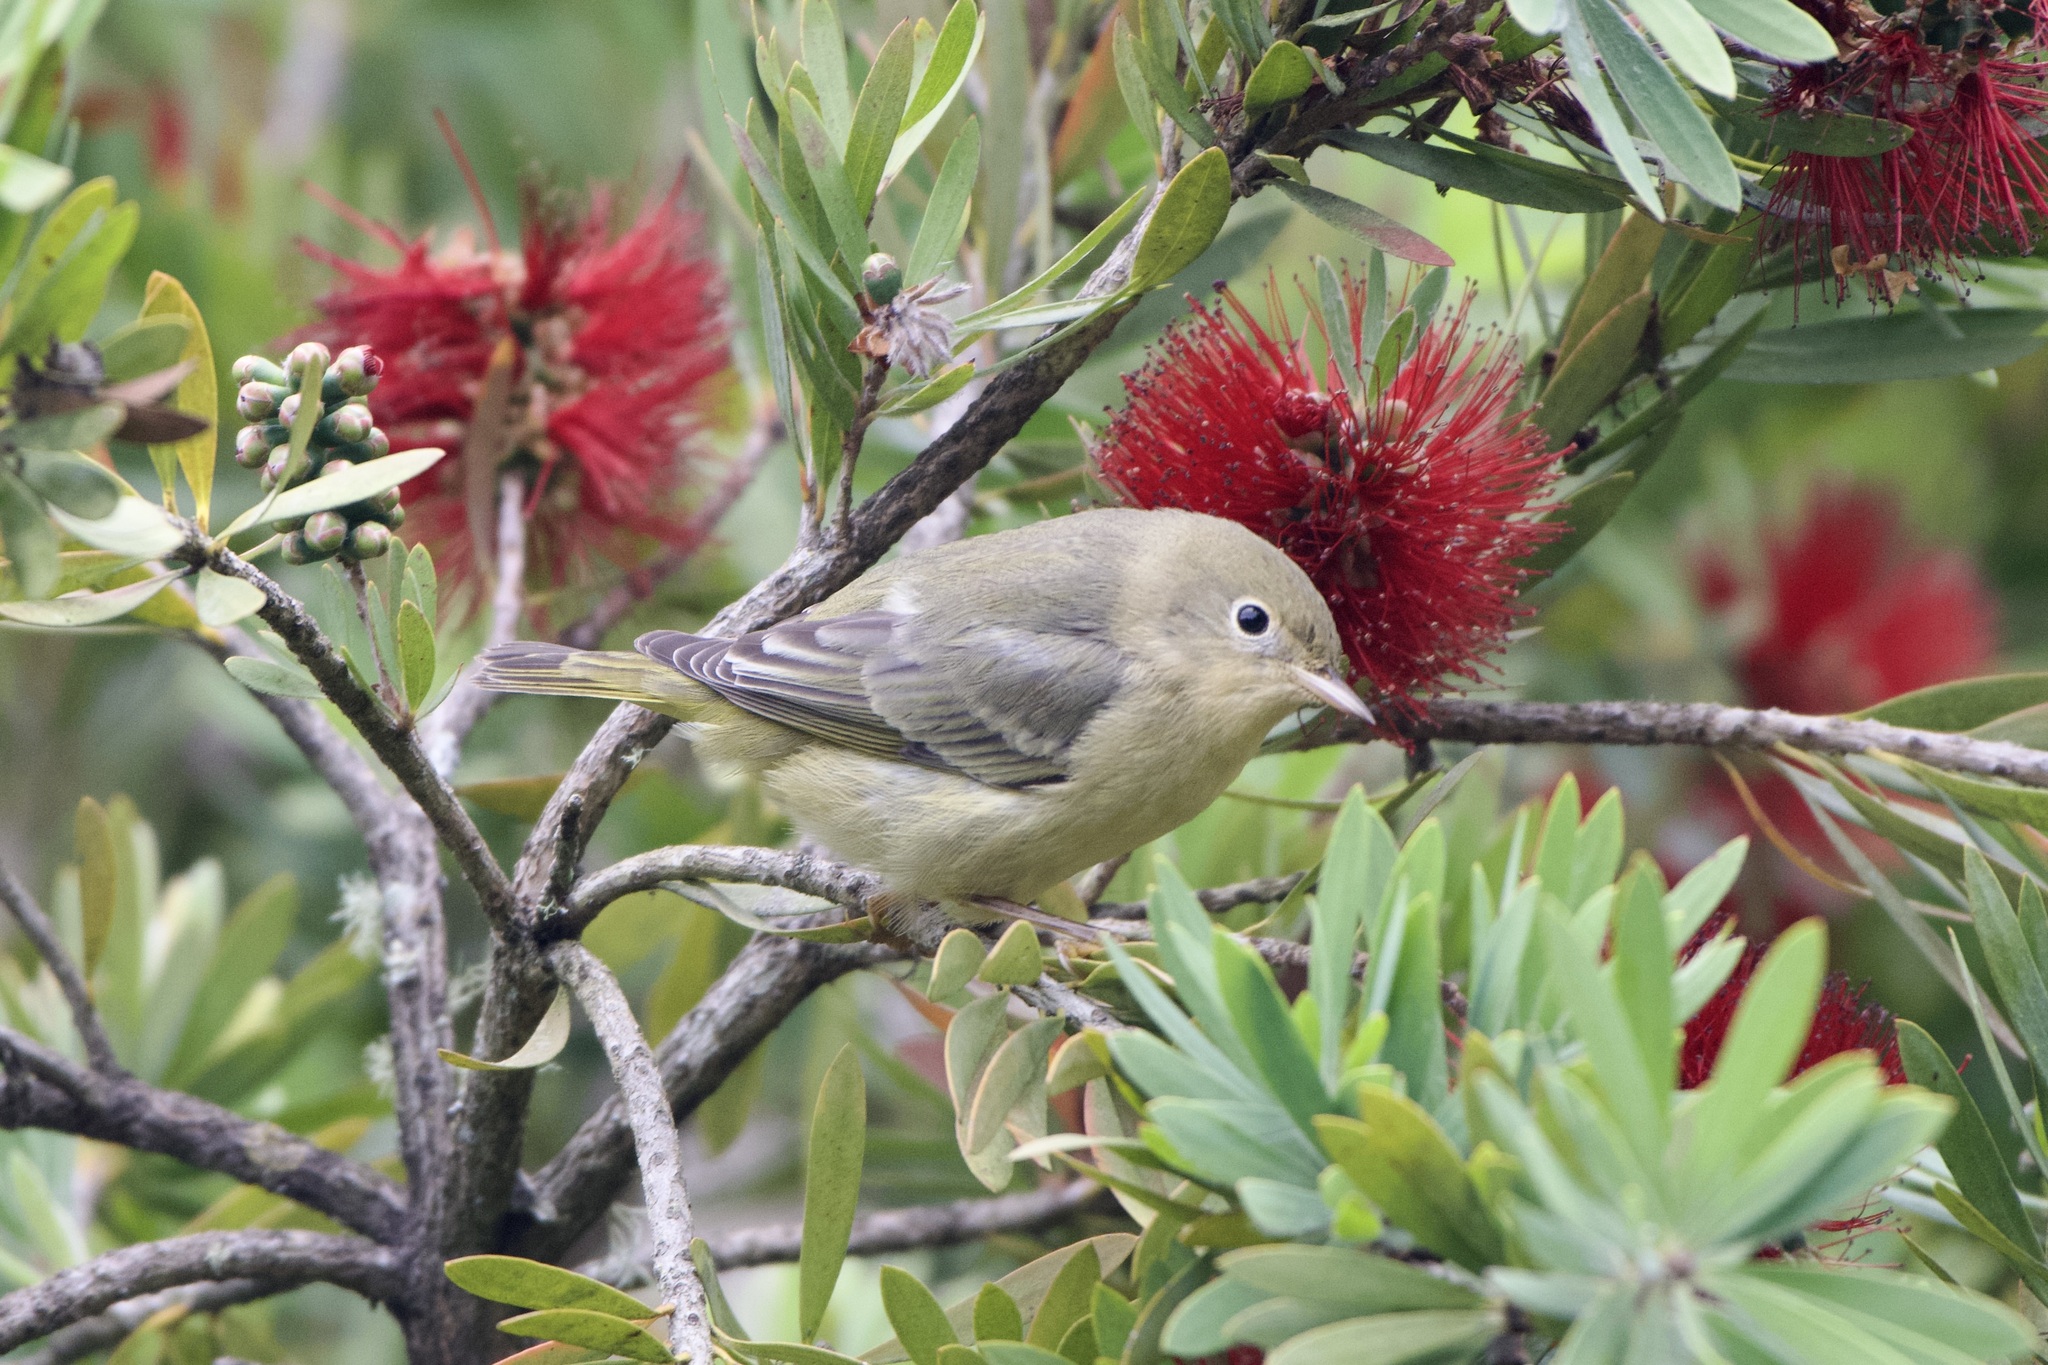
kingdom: Animalia
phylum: Chordata
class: Aves
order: Passeriformes
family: Parulidae
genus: Setophaga
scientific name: Setophaga petechia
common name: Yellow warbler
